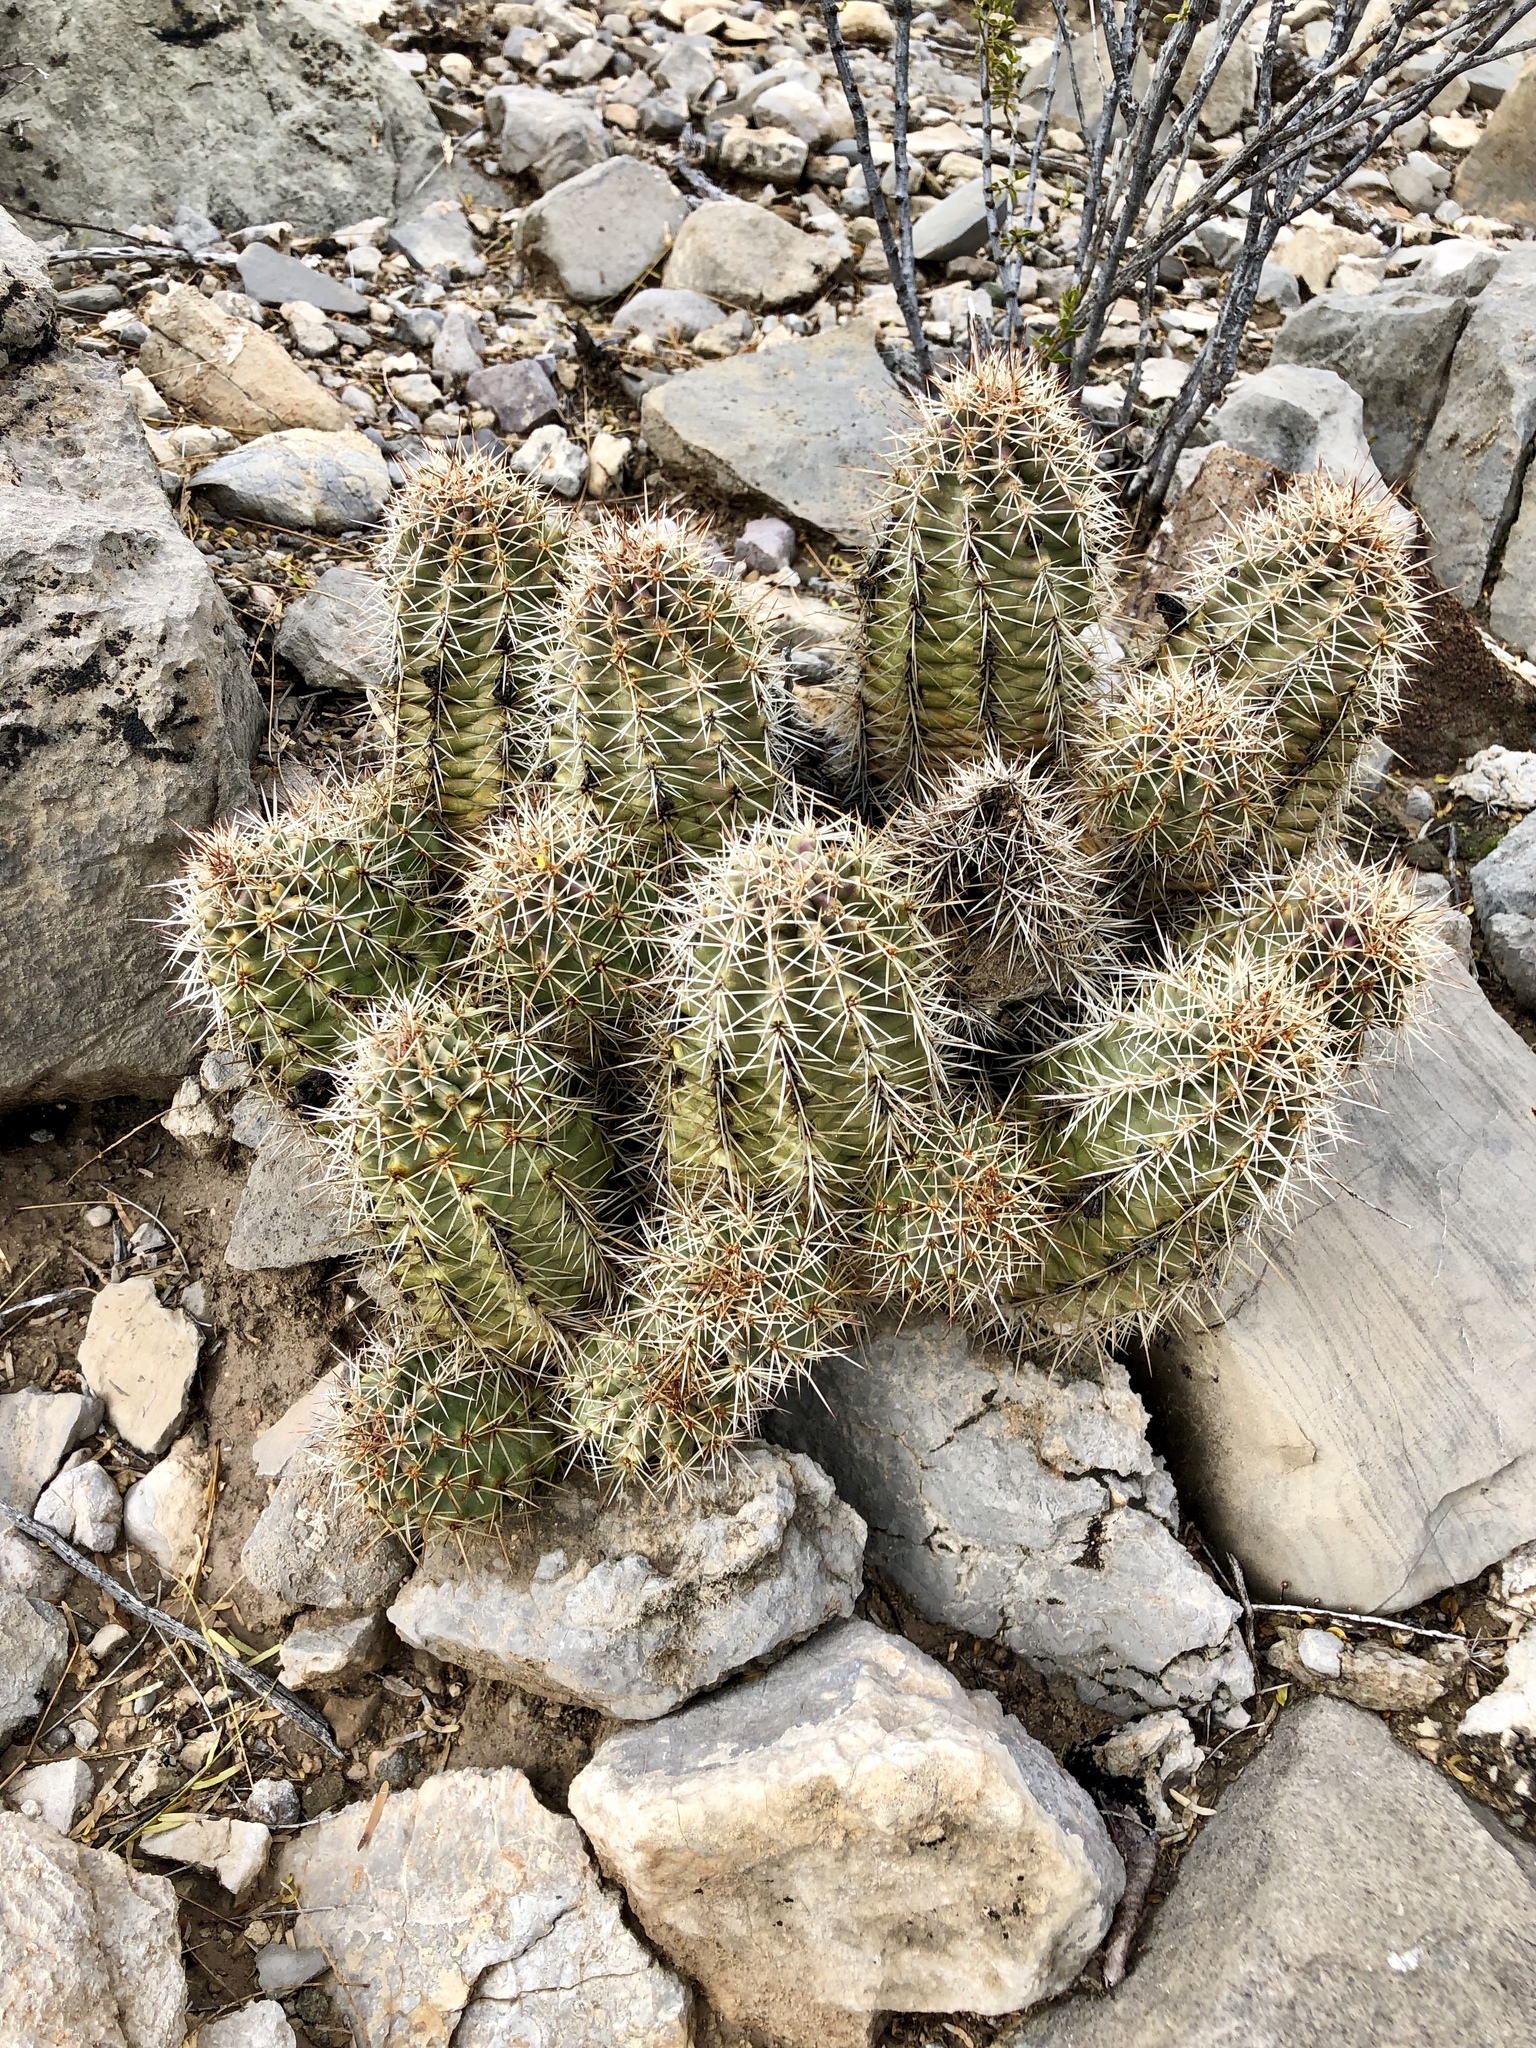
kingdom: Plantae
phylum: Tracheophyta
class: Magnoliopsida
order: Caryophyllales
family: Cactaceae
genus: Echinocereus
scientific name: Echinocereus roetteri
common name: Lloyd's hedgehog cactus
